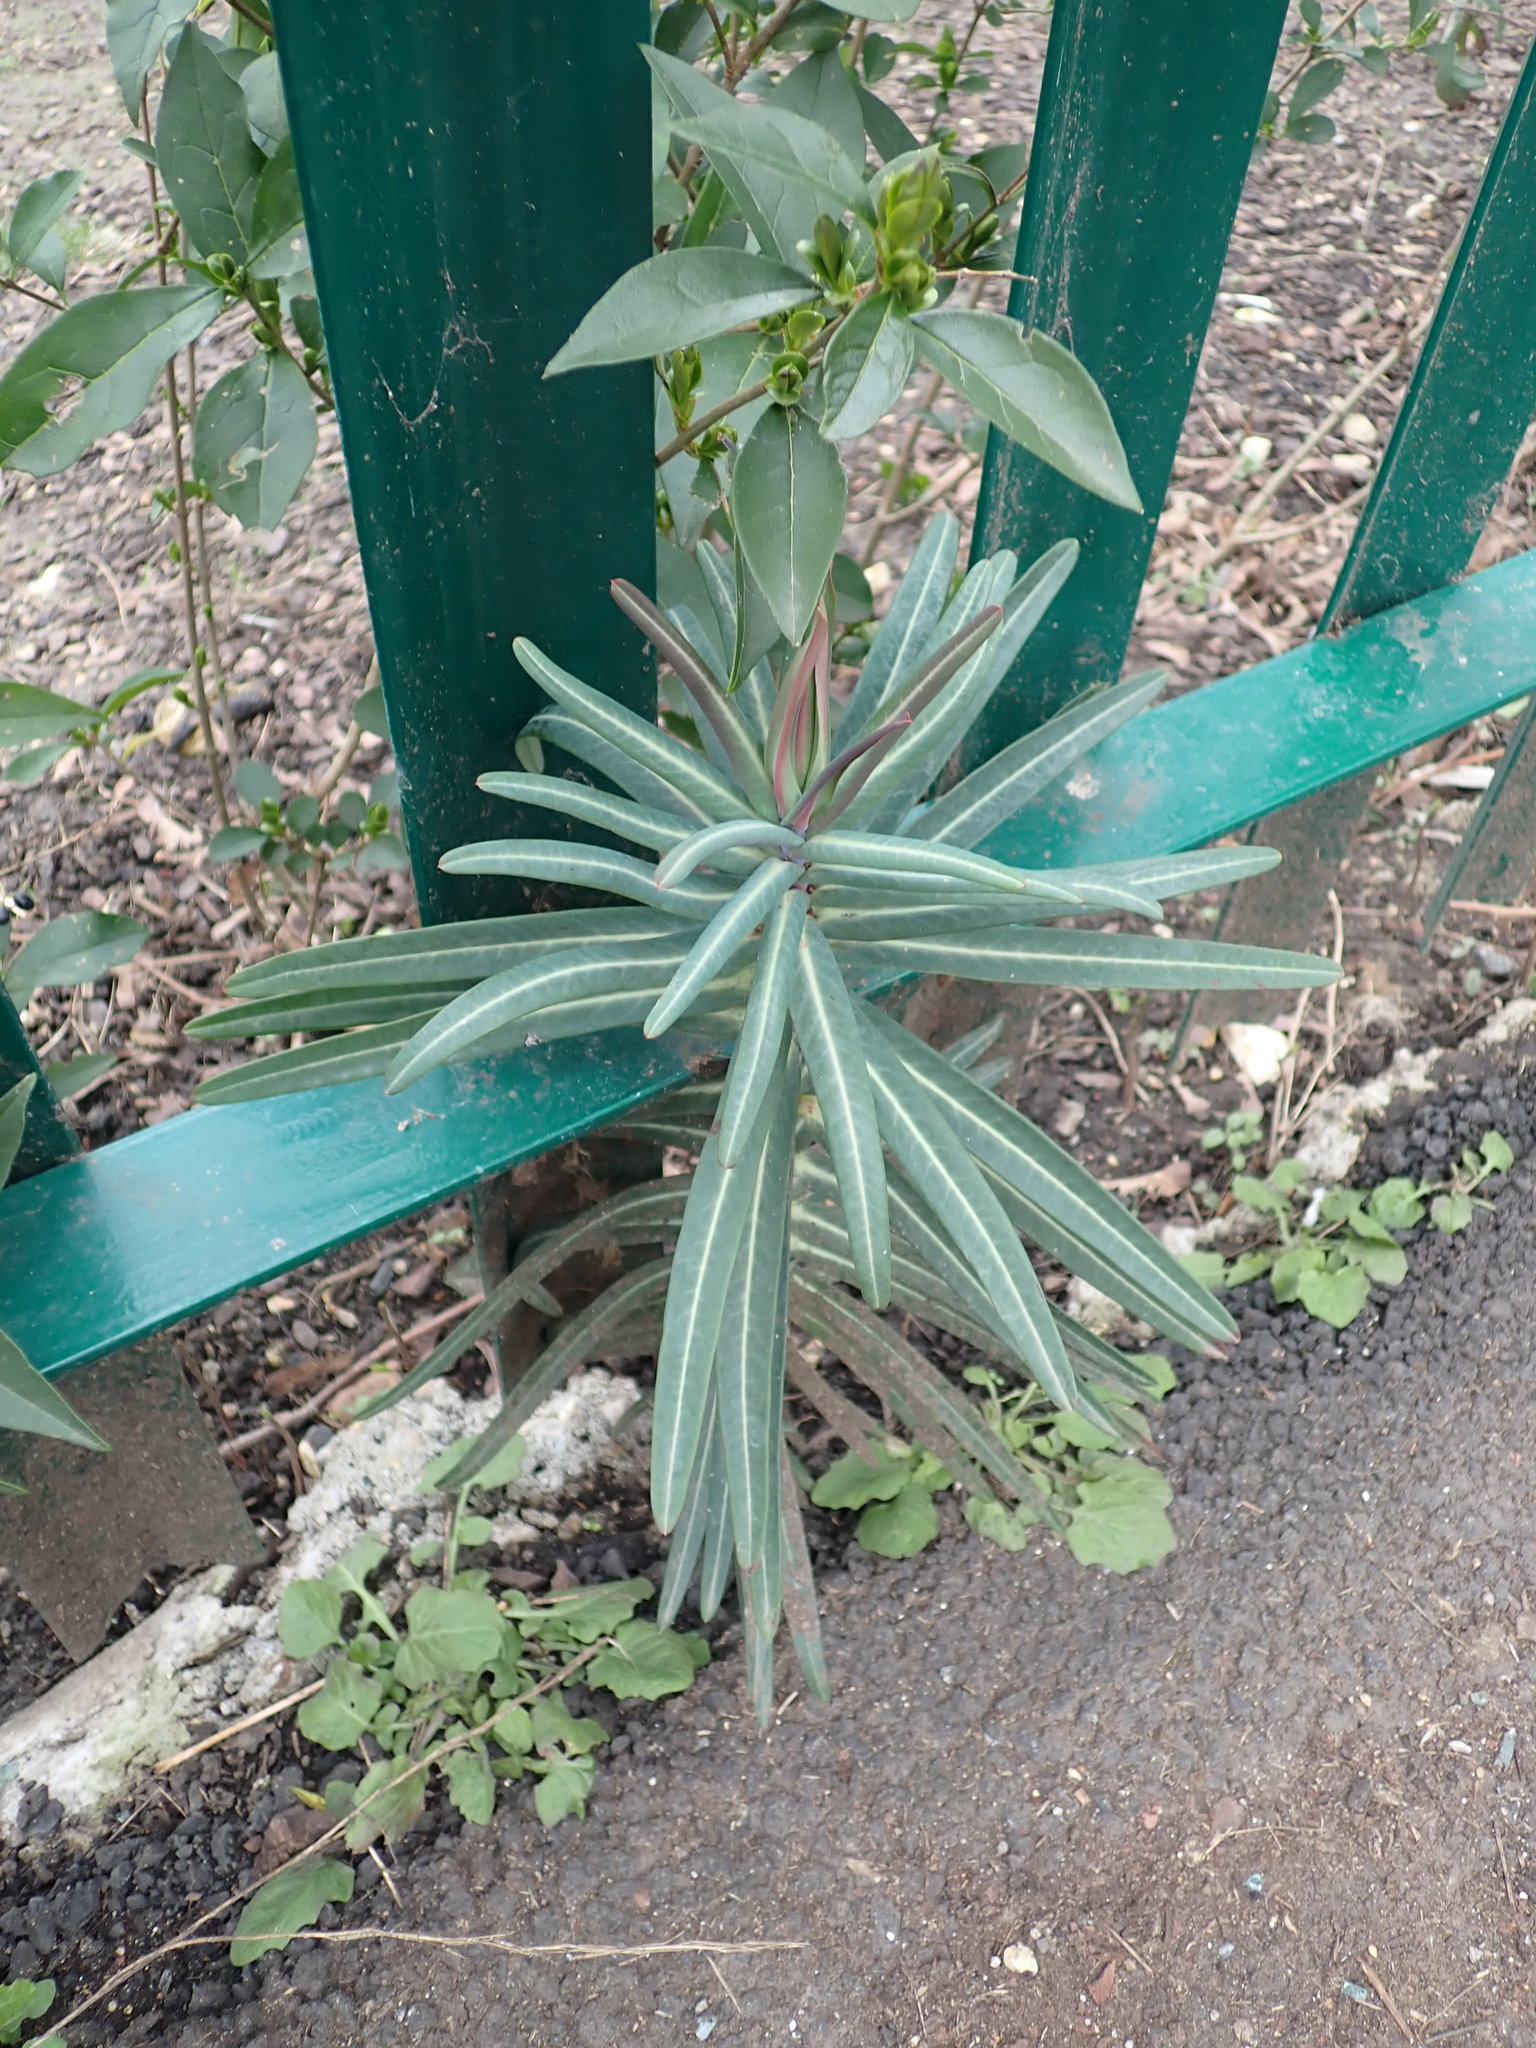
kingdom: Plantae
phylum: Tracheophyta
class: Magnoliopsida
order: Malpighiales
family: Euphorbiaceae
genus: Euphorbia
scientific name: Euphorbia lathyris
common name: Caper spurge
